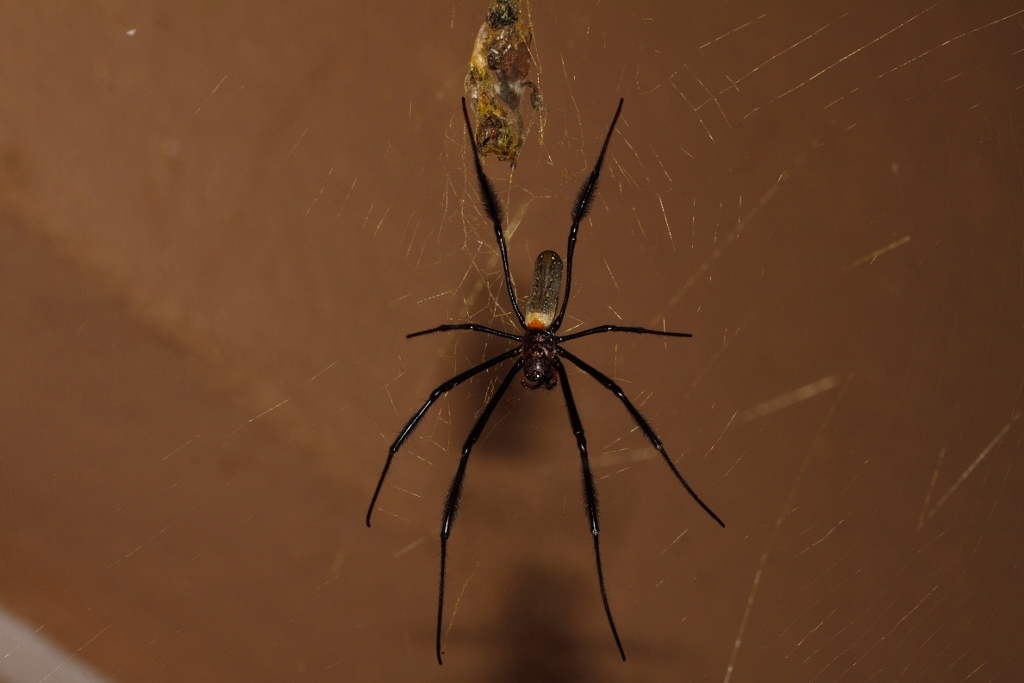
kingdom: Animalia
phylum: Arthropoda
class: Arachnida
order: Araneae
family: Araneidae
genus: Trichonephila
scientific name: Trichonephila fenestrata
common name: Hairy golden orb weaver
